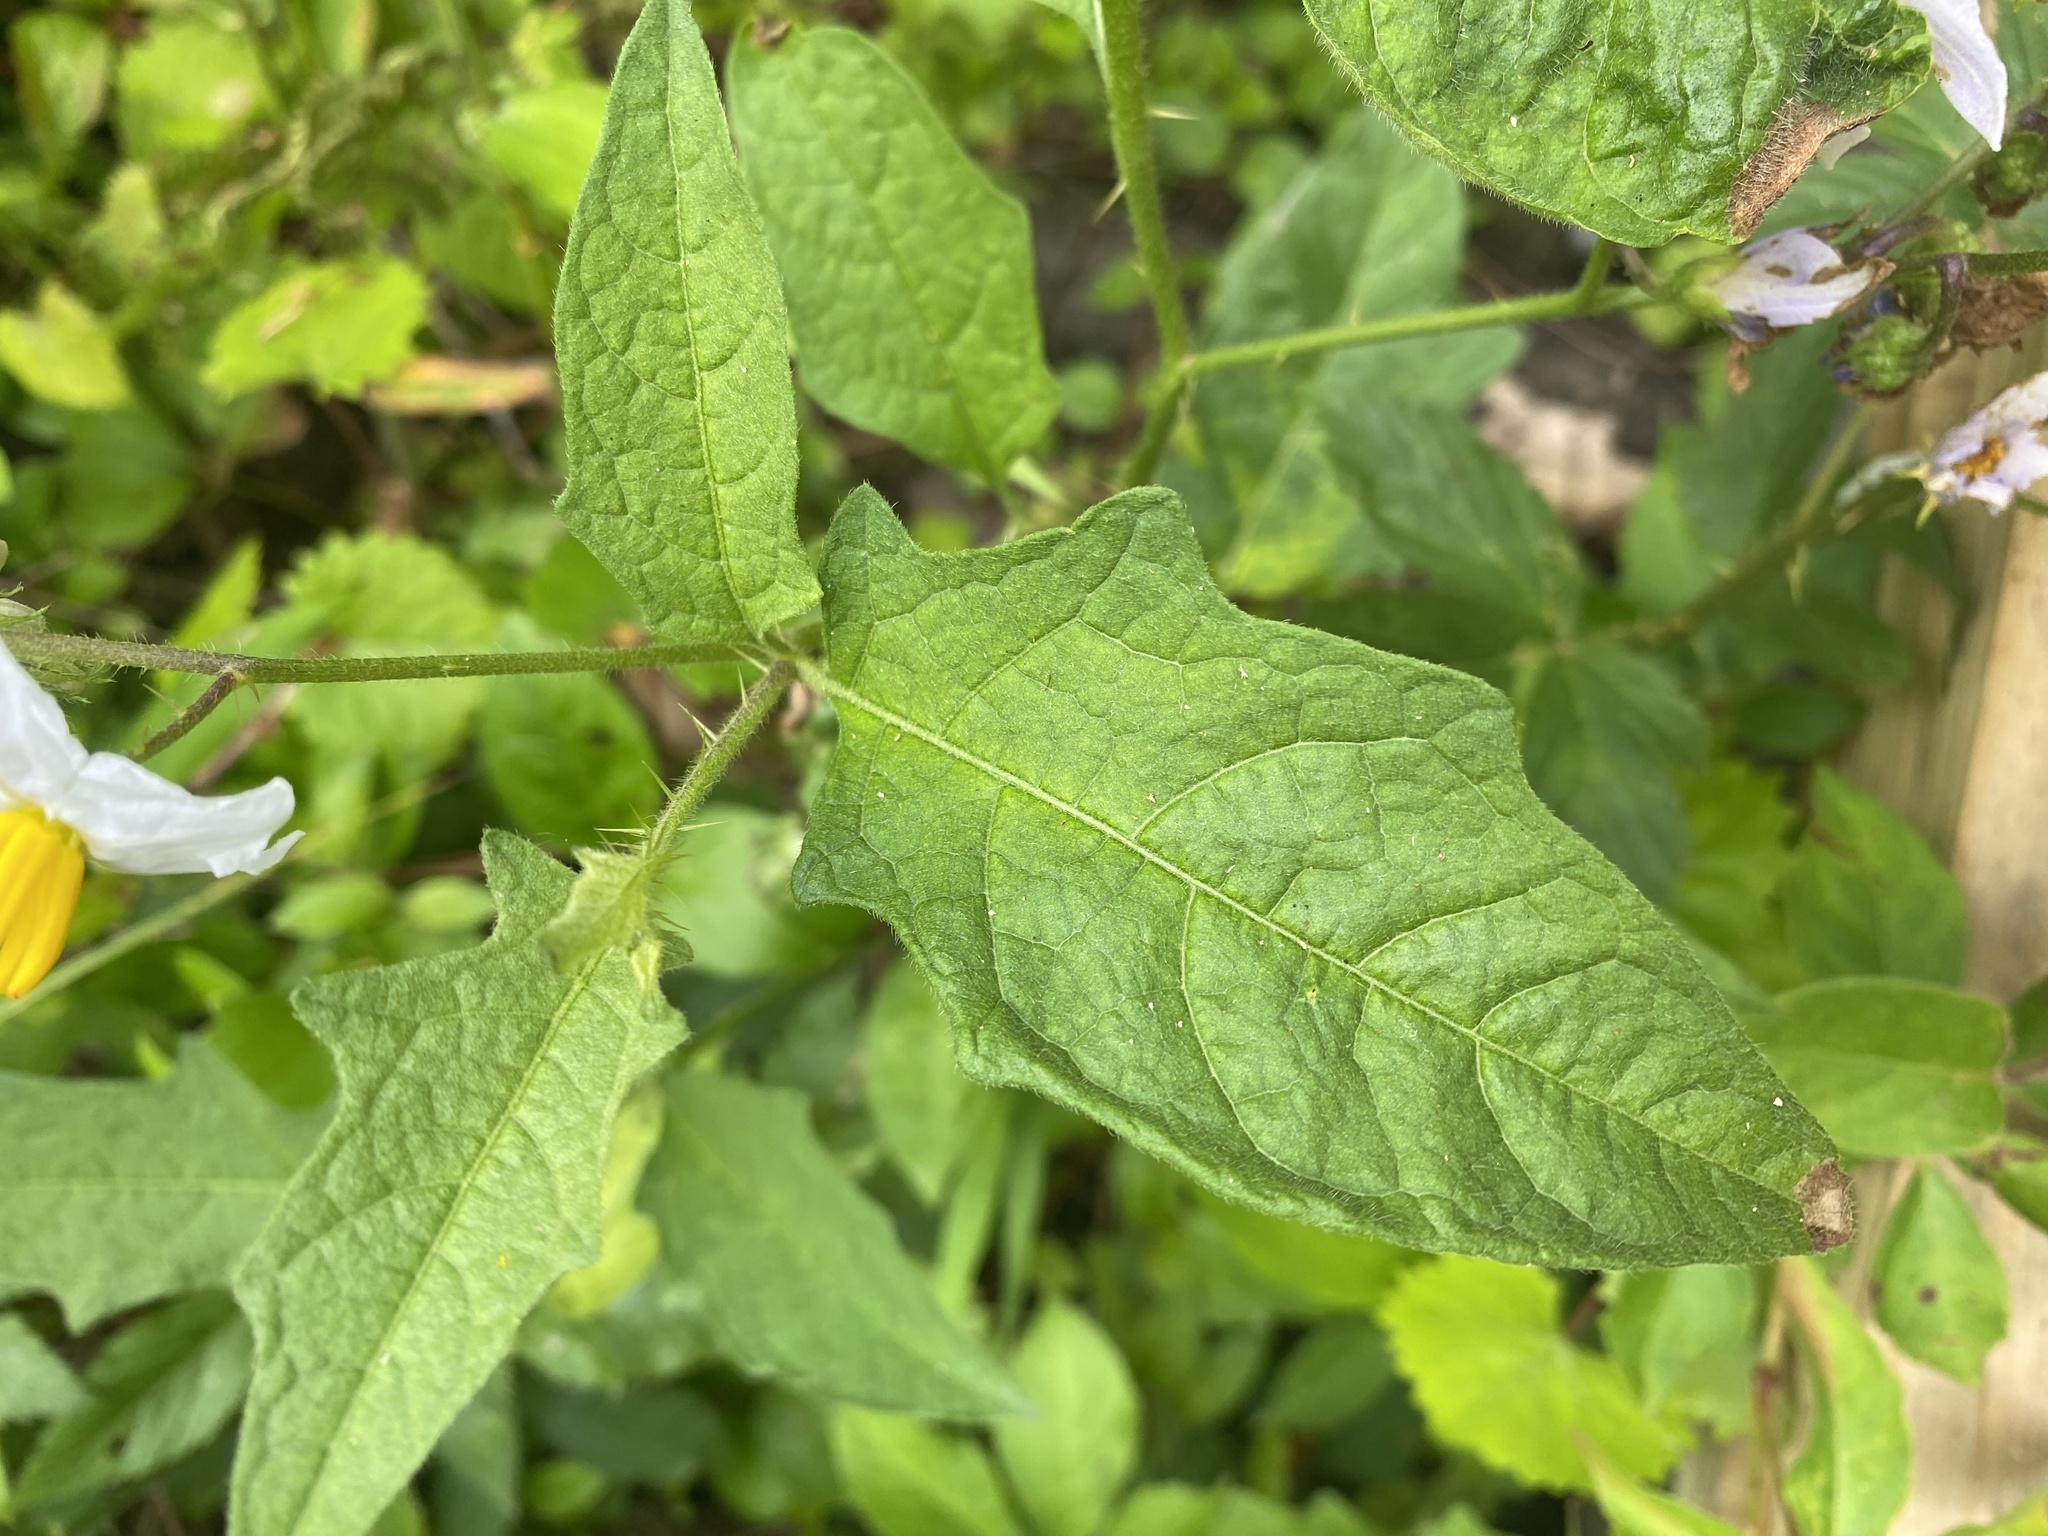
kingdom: Plantae
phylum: Tracheophyta
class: Magnoliopsida
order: Solanales
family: Solanaceae
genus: Solanum
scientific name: Solanum carolinense
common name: Horse-nettle
